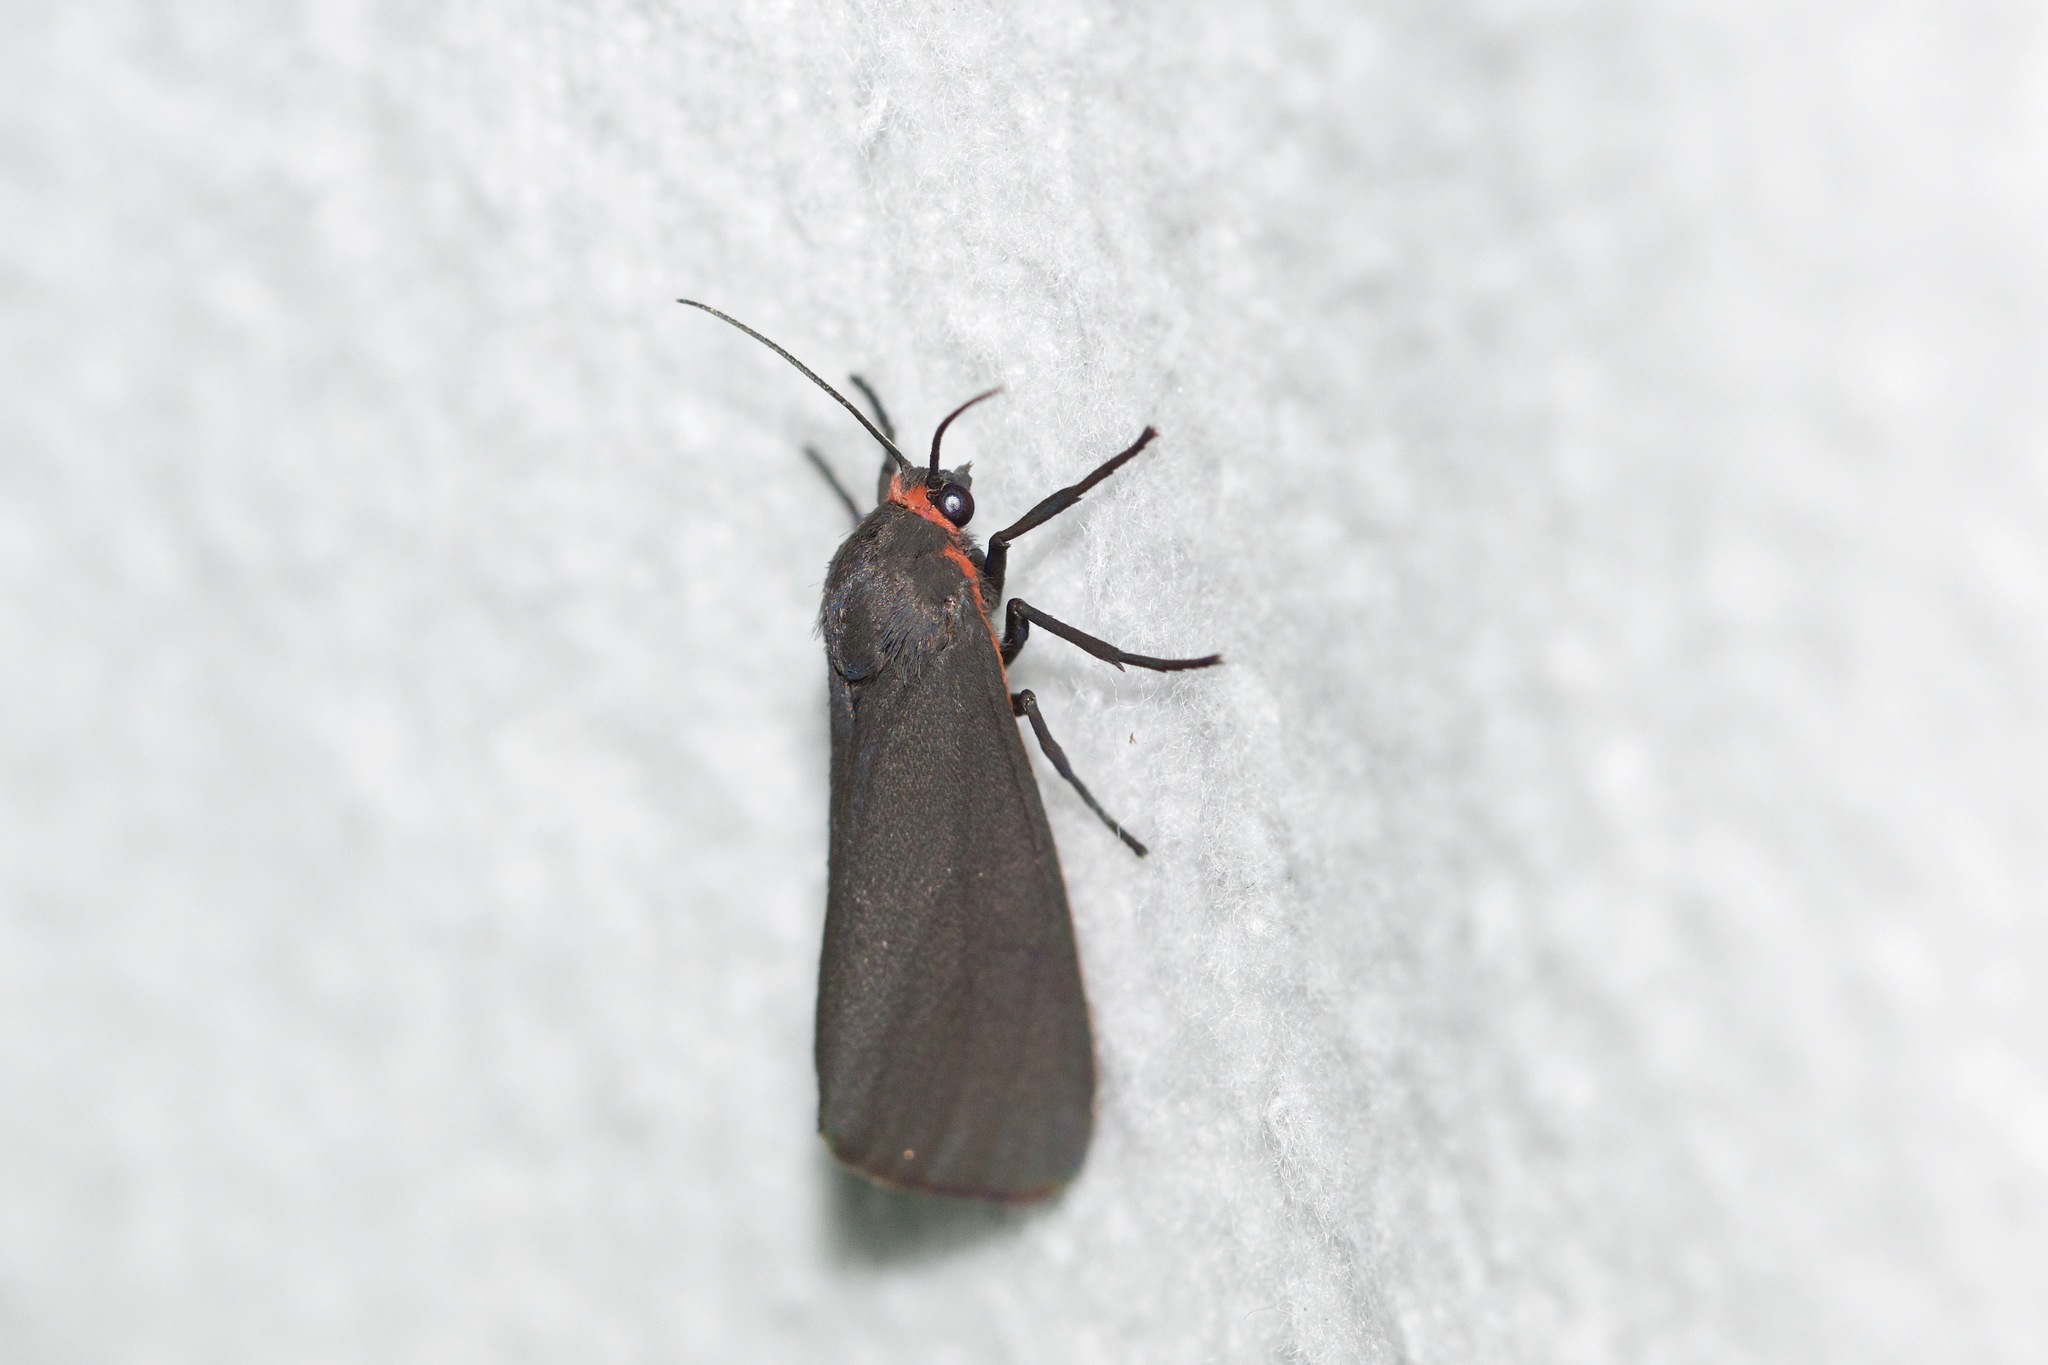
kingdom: Animalia
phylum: Arthropoda
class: Insecta
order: Lepidoptera
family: Erebidae
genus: Virbia
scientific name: Virbia laeta
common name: Joyful holomelina moth
